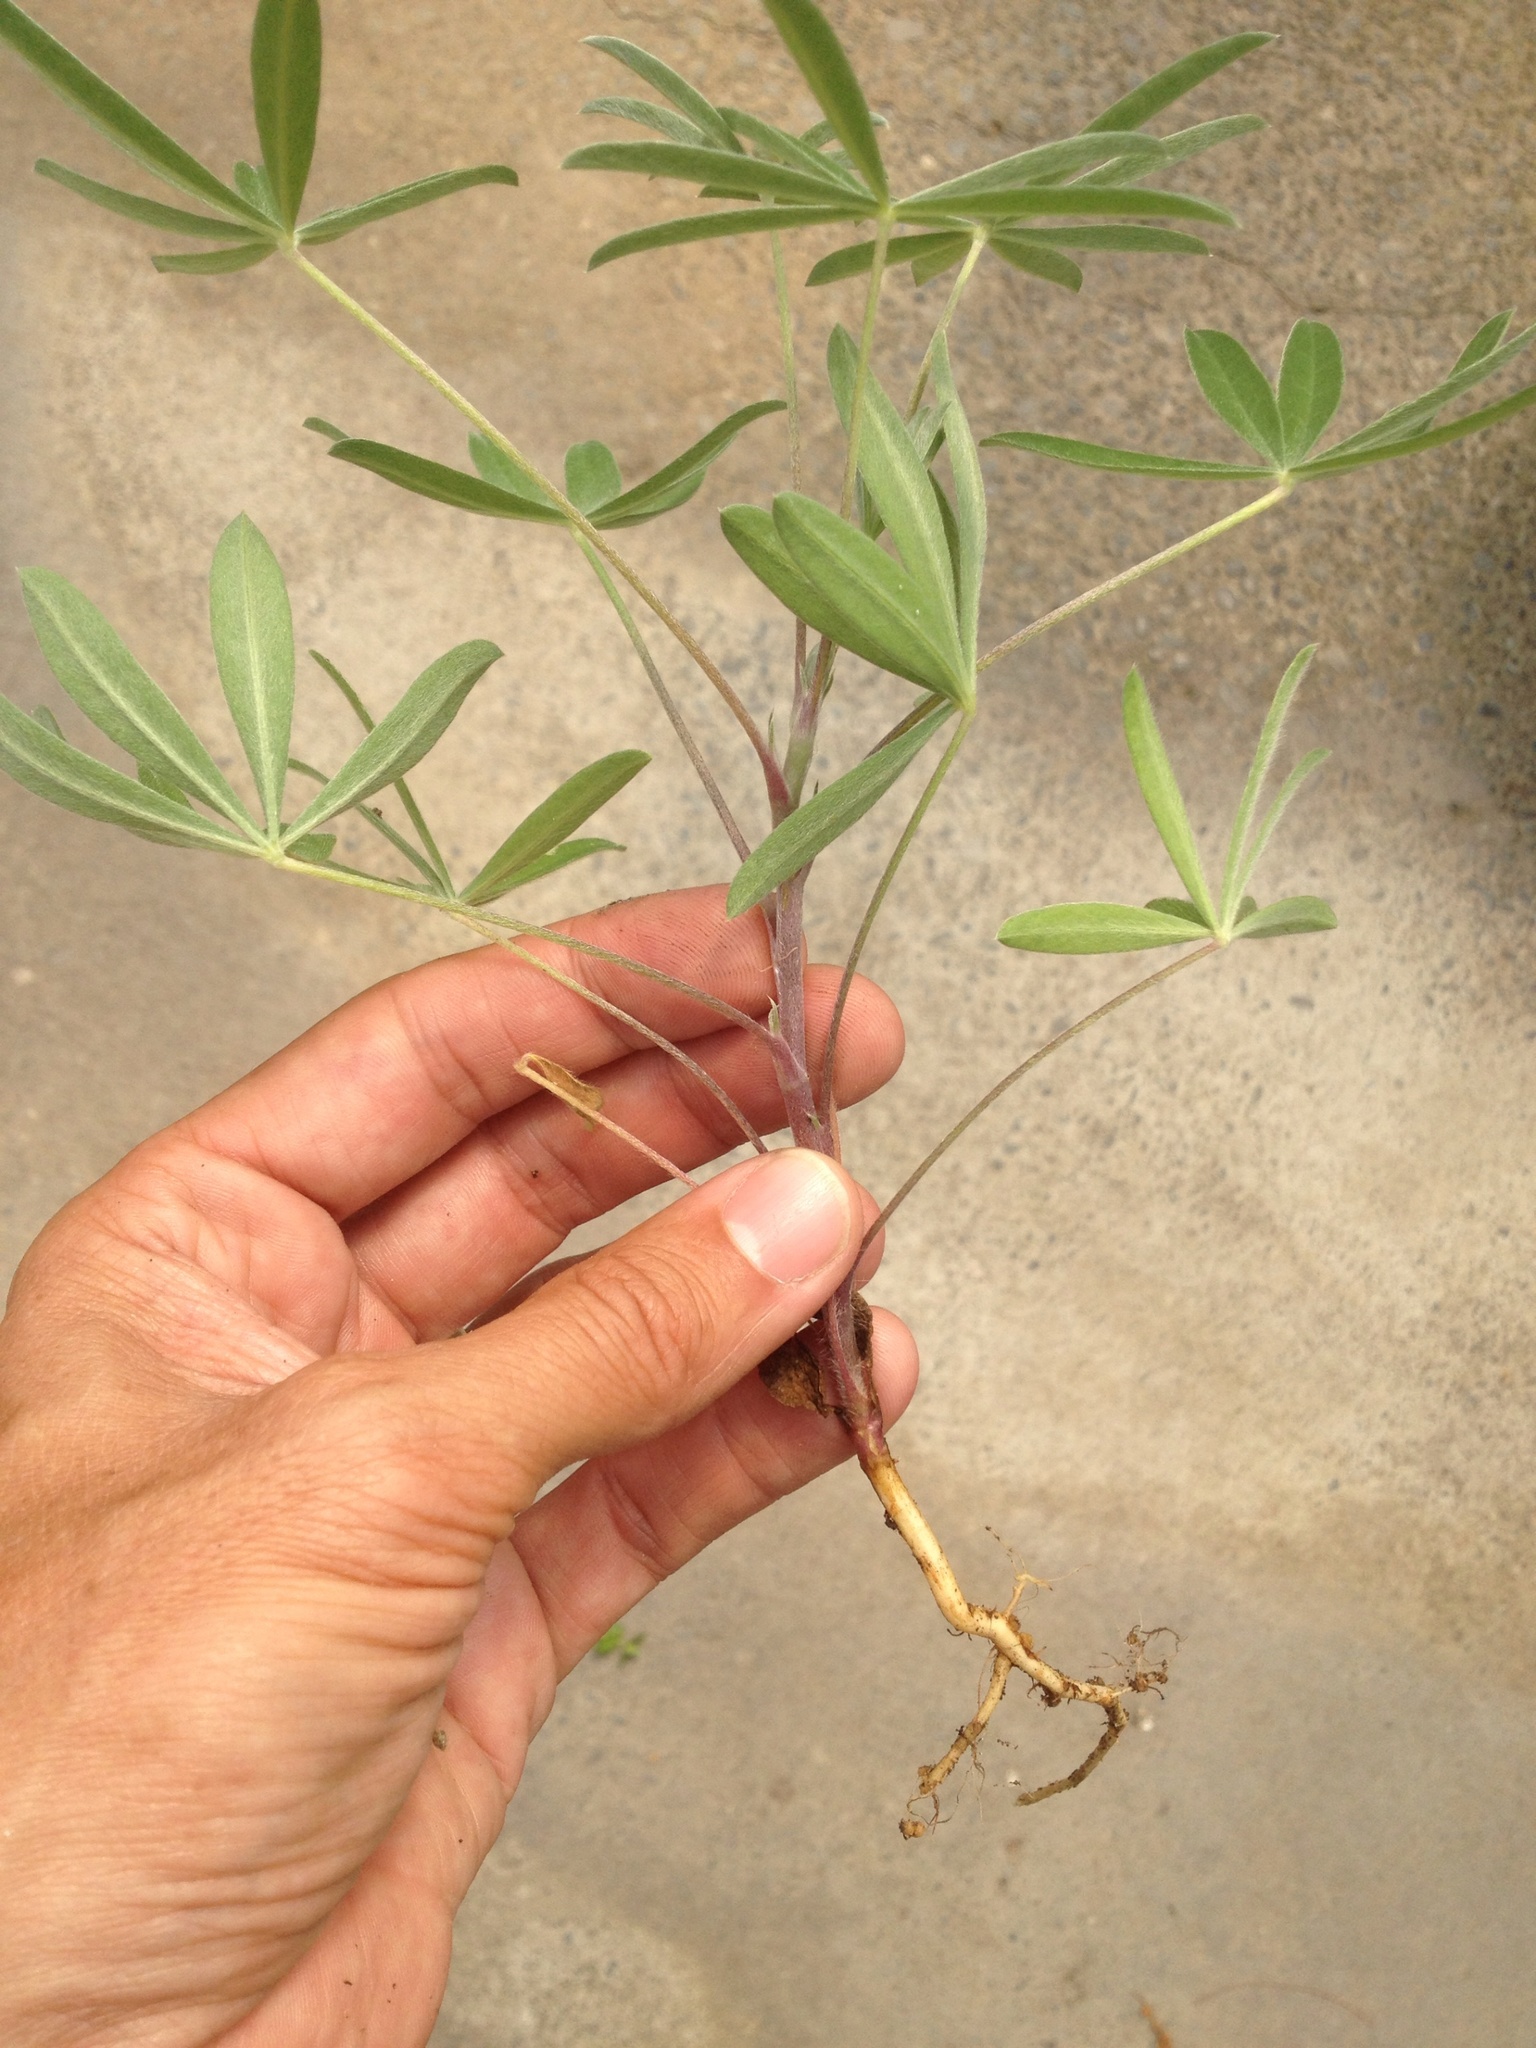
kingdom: Plantae
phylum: Tracheophyta
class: Magnoliopsida
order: Fabales
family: Fabaceae
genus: Lupinus
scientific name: Lupinus arboreus
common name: Yellow bush lupine
